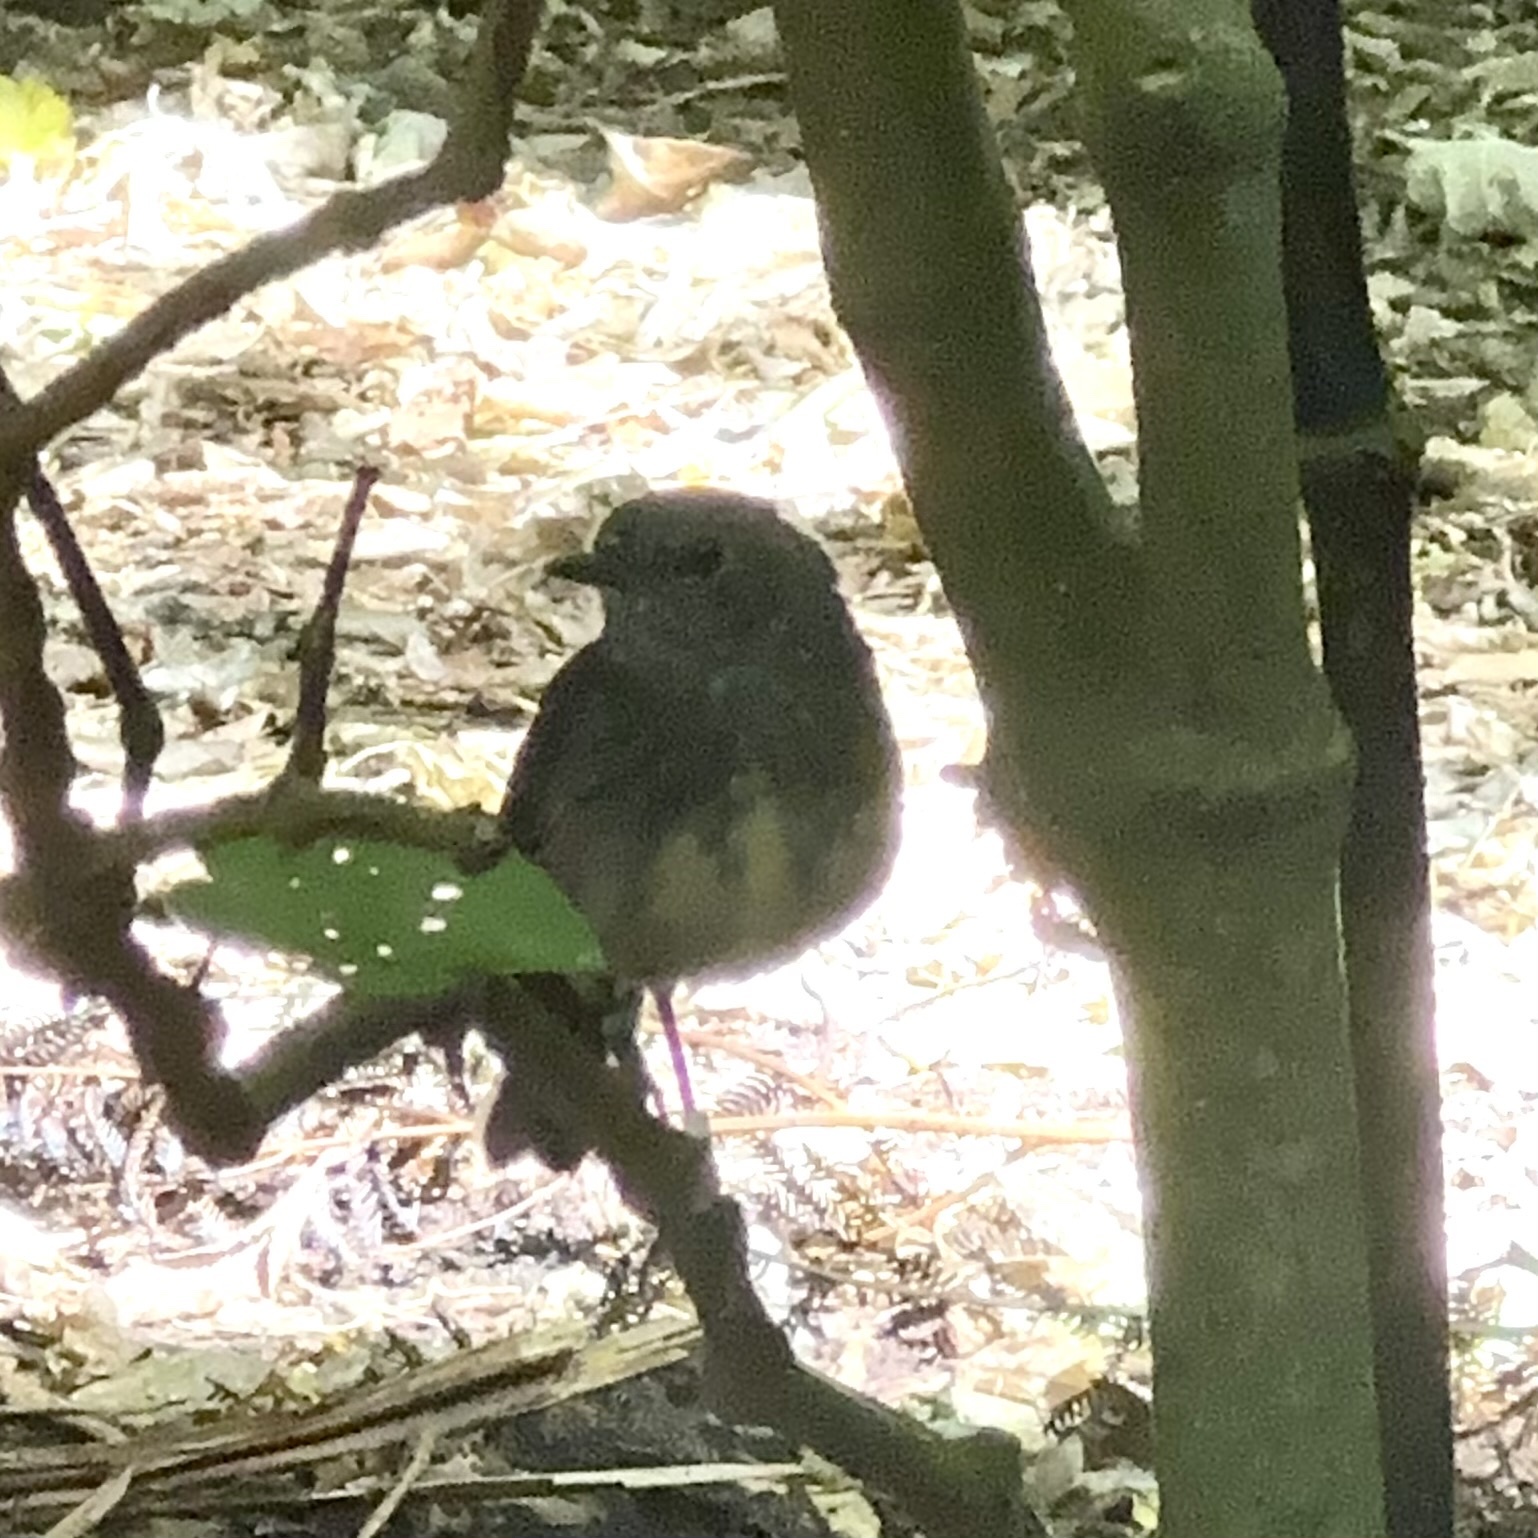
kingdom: Animalia
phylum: Chordata
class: Aves
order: Passeriformes
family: Petroicidae
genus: Petroica
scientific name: Petroica australis
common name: New zealand robin
